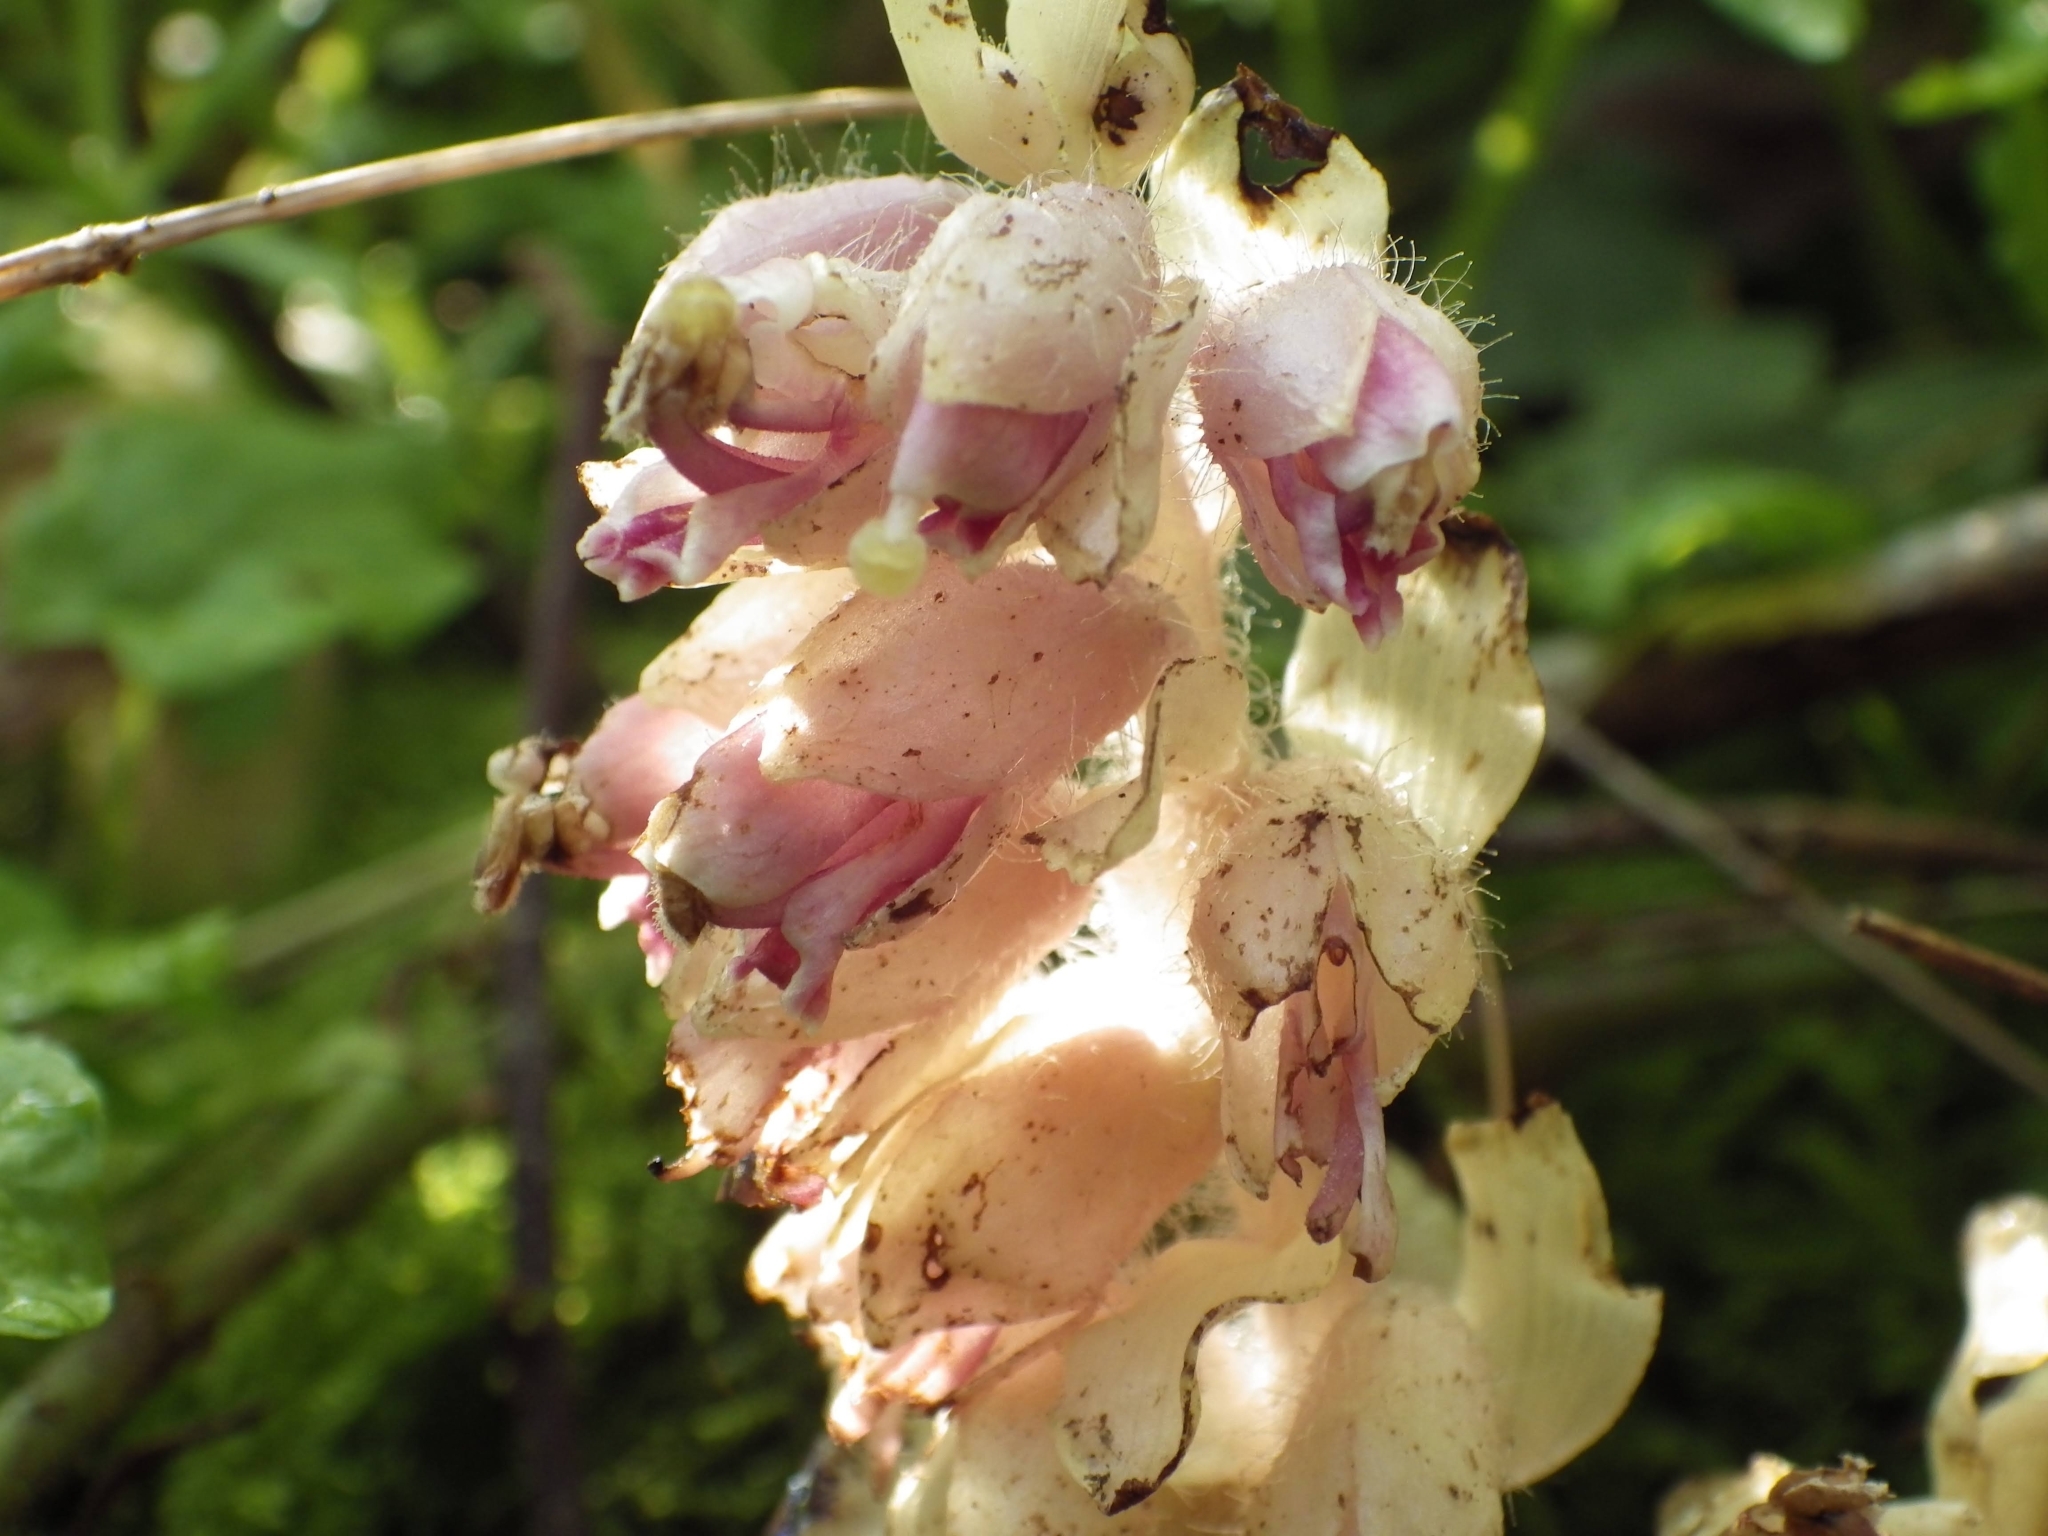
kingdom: Plantae
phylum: Tracheophyta
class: Magnoliopsida
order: Lamiales
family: Orobanchaceae
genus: Lathraea
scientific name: Lathraea squamaria
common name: Toothwort
